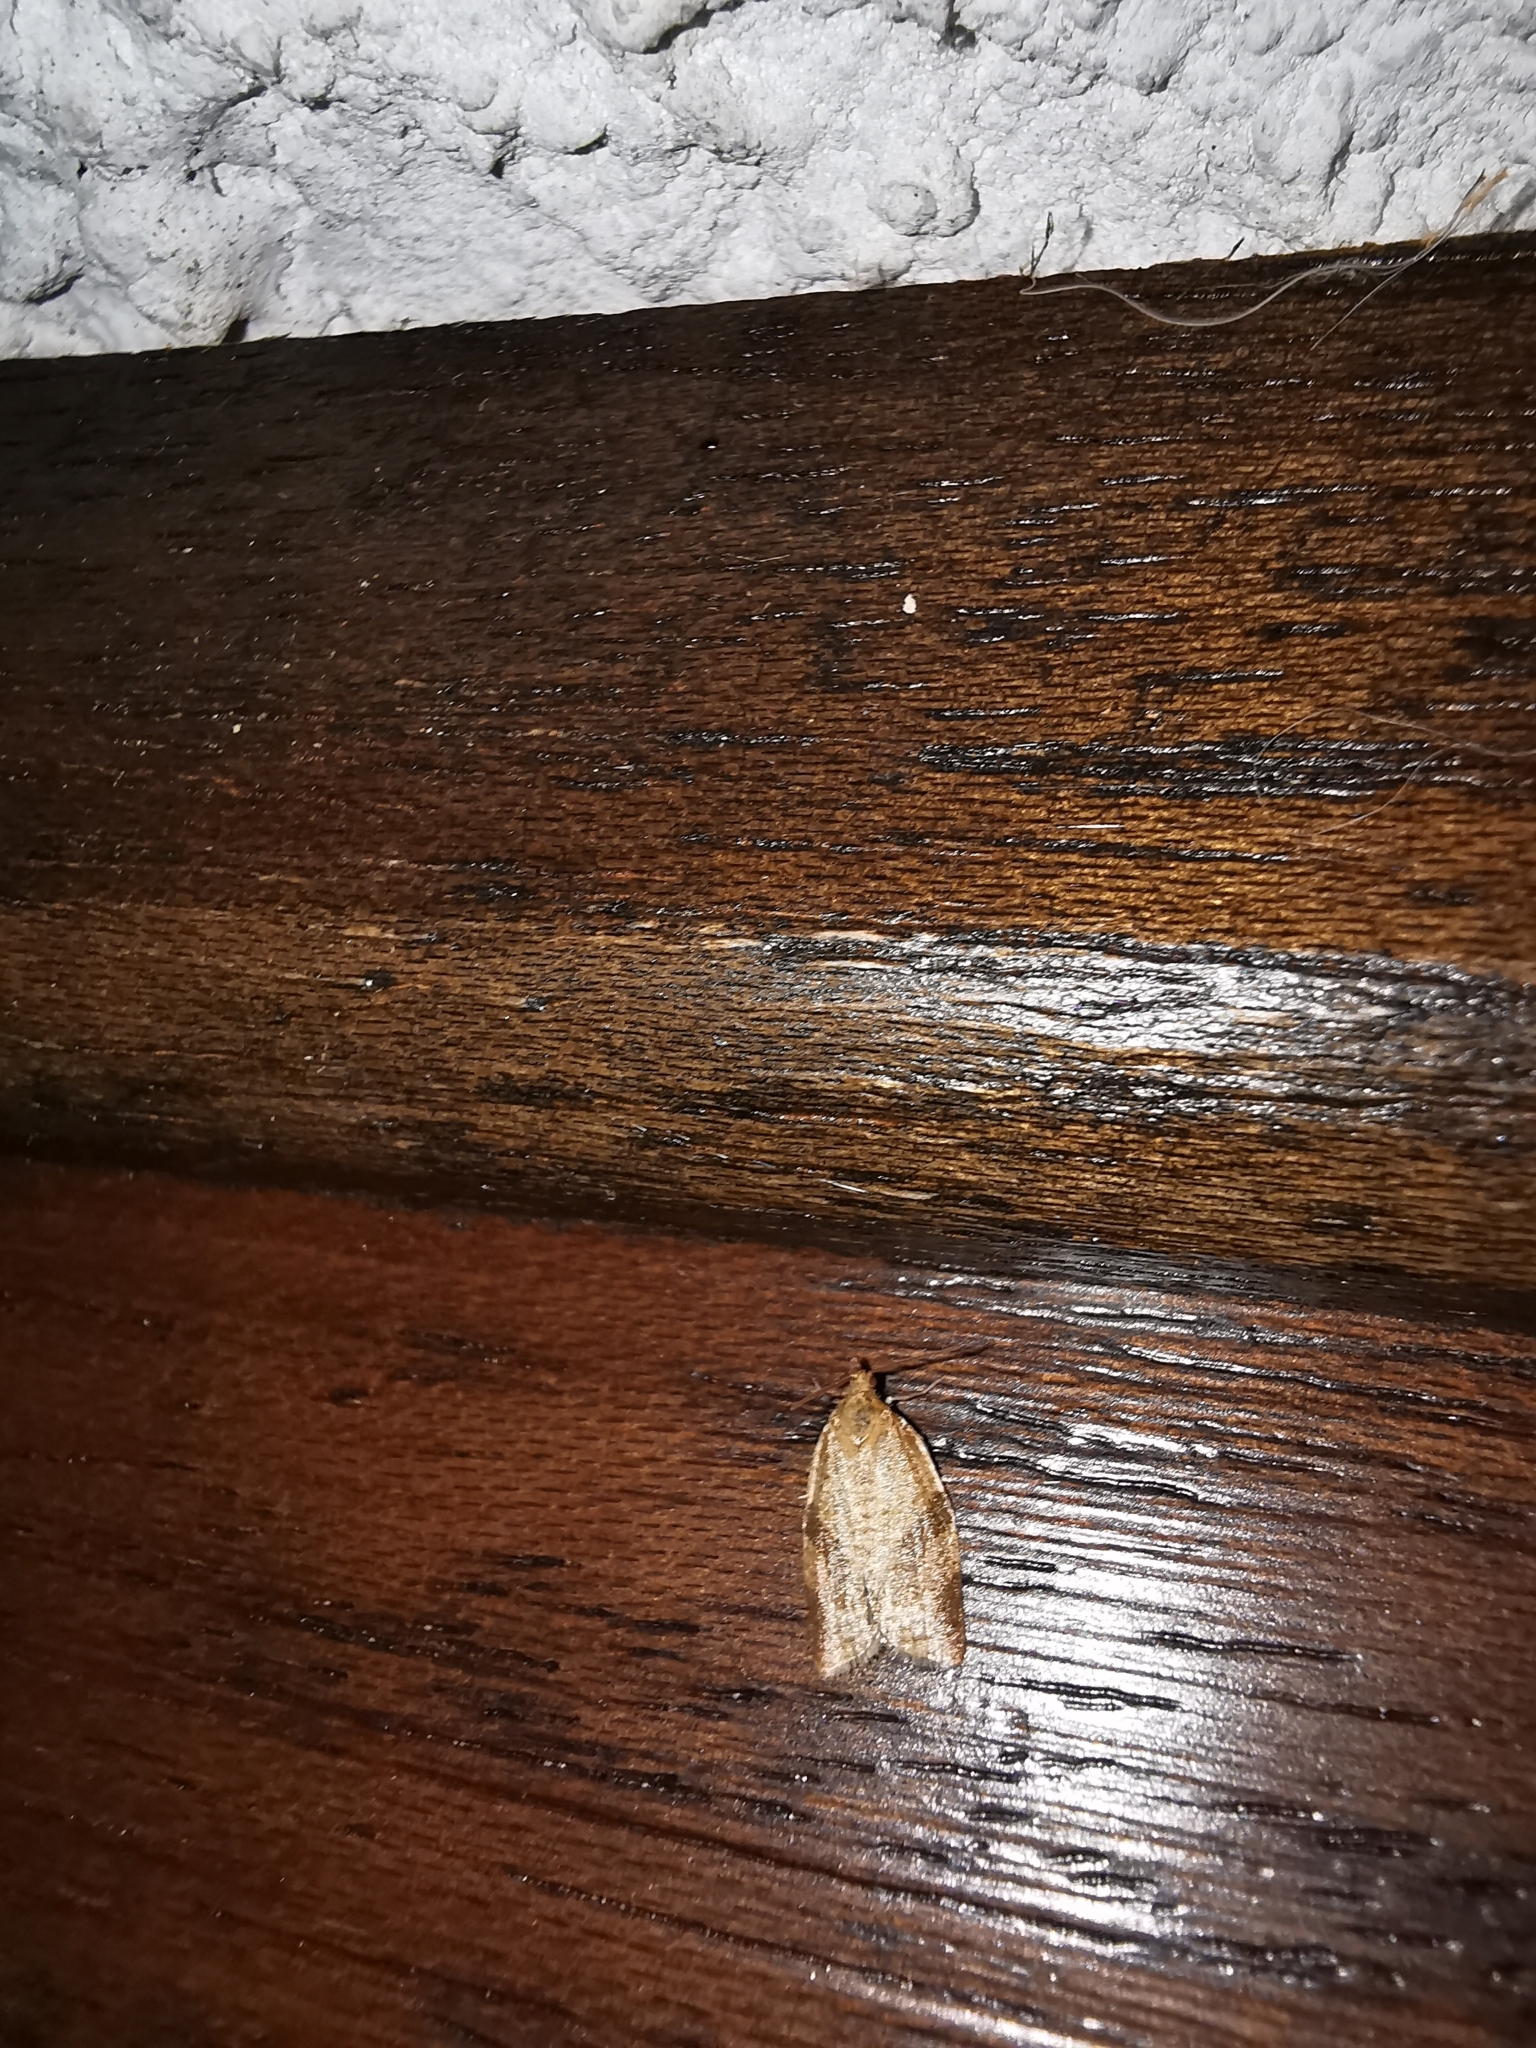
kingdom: Animalia
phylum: Arthropoda
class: Insecta
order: Lepidoptera
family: Tortricidae
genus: Clepsis
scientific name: Clepsis consimilana
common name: Privet tortrix
